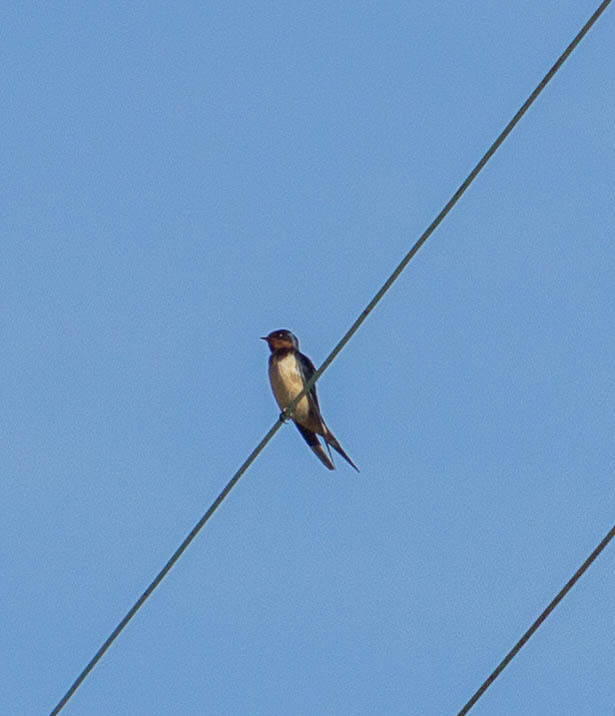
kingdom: Animalia
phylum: Chordata
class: Aves
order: Passeriformes
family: Hirundinidae
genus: Hirundo
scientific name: Hirundo rustica
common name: Barn swallow
